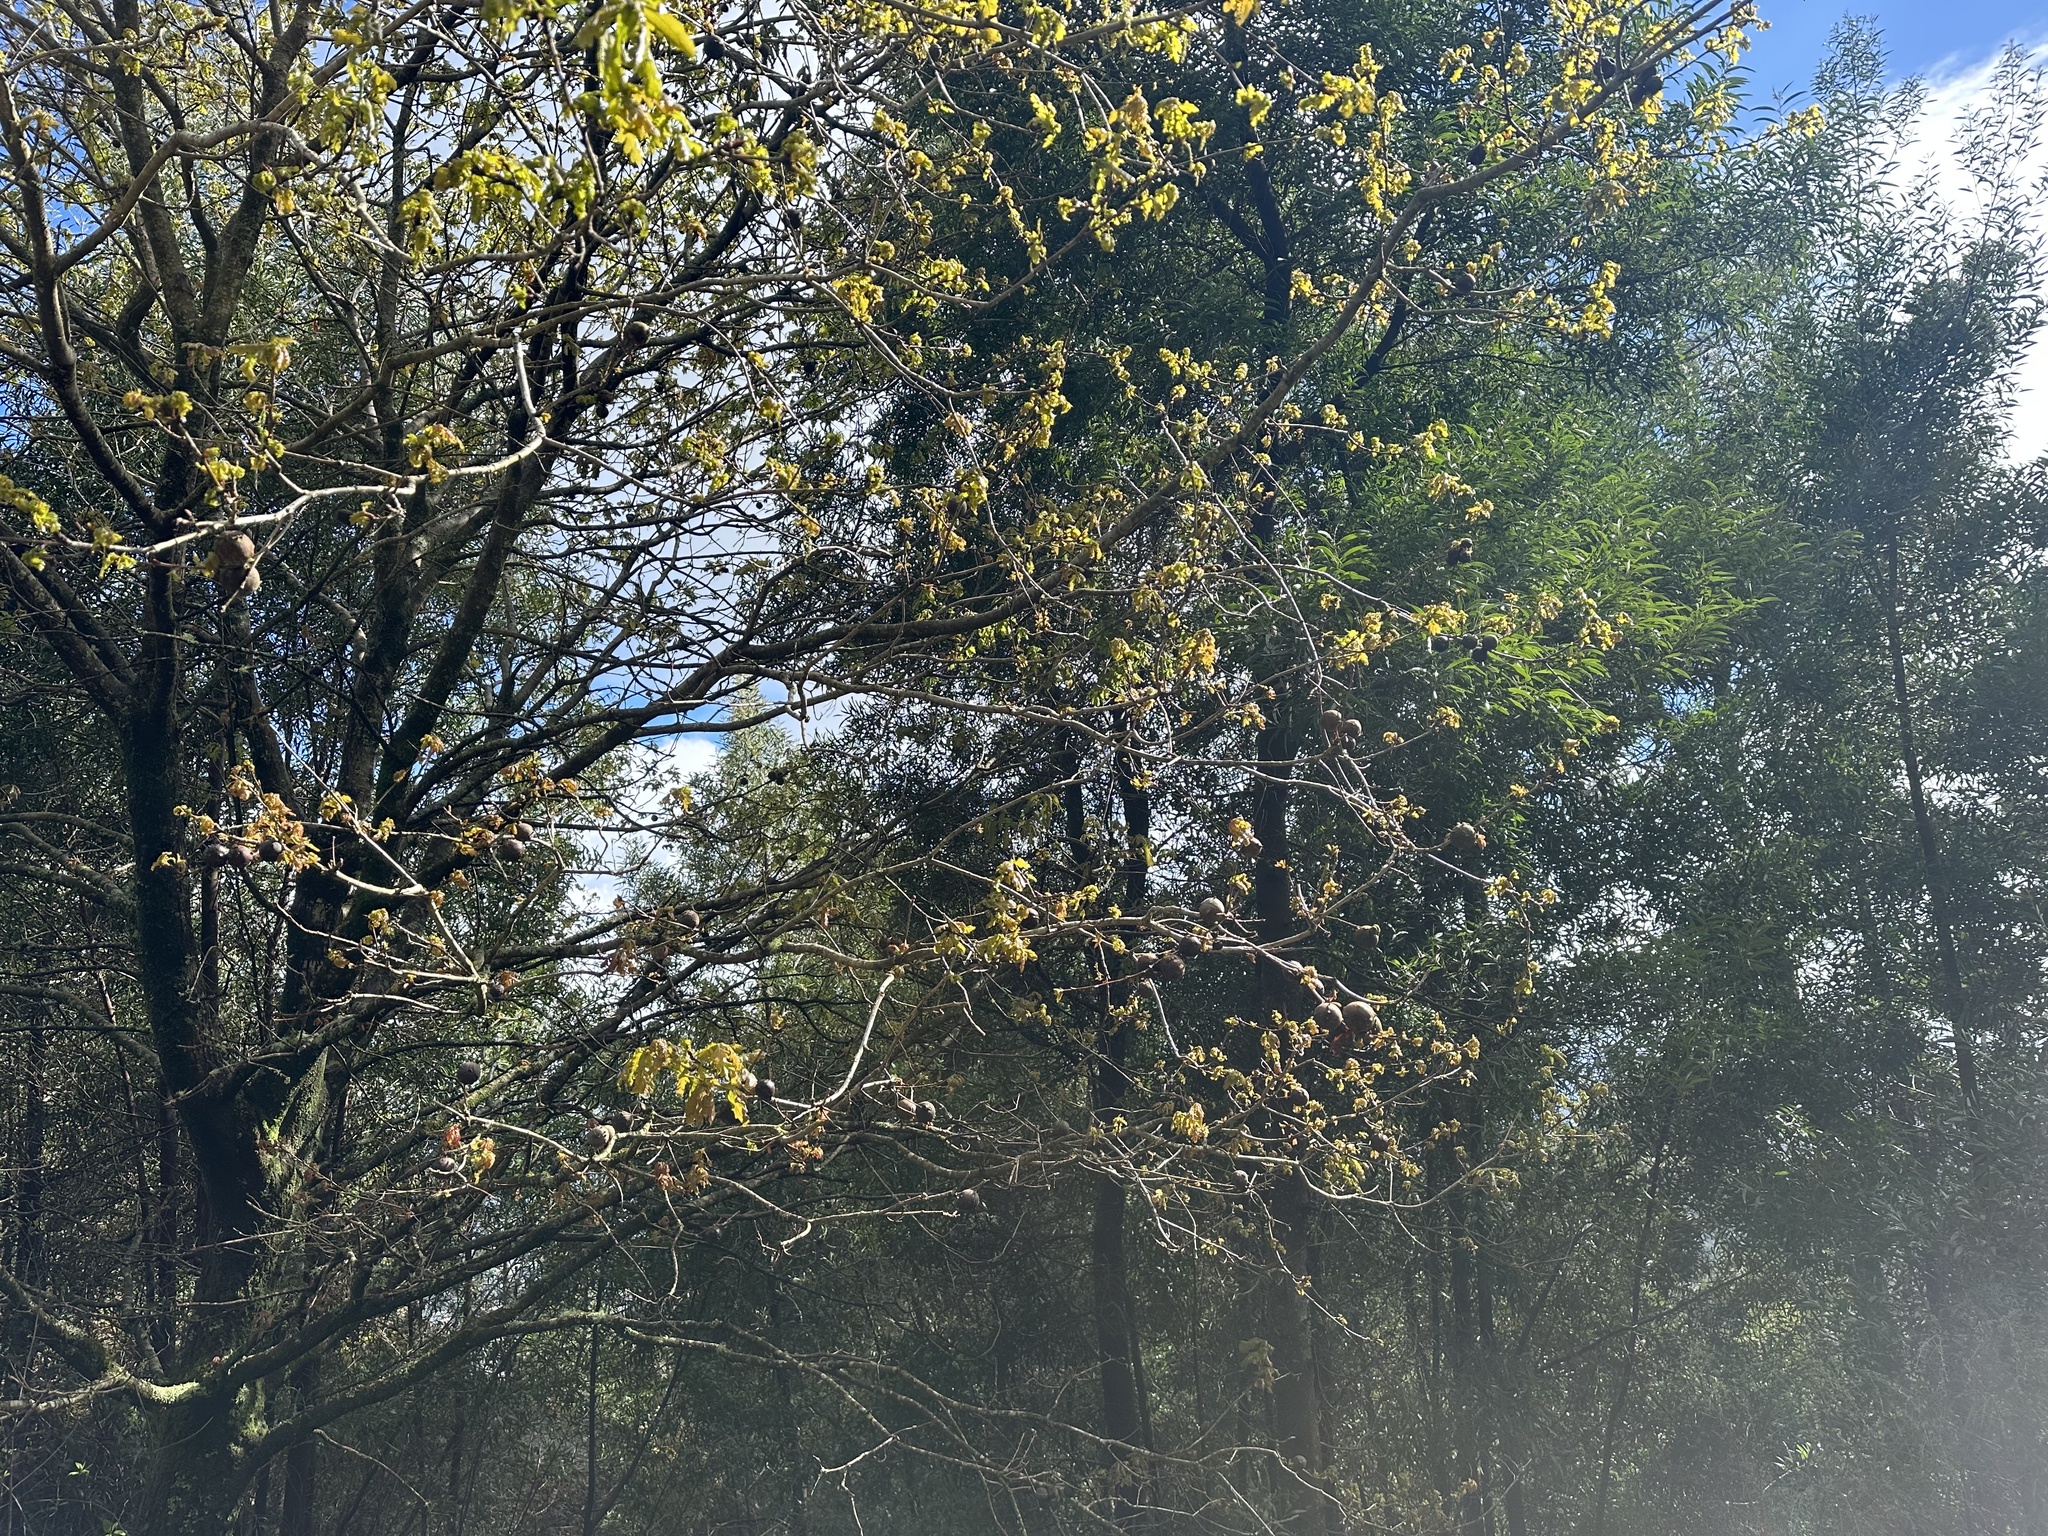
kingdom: Animalia
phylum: Arthropoda
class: Insecta
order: Hymenoptera
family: Cynipidae
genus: Andricus
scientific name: Andricus quercustozae
